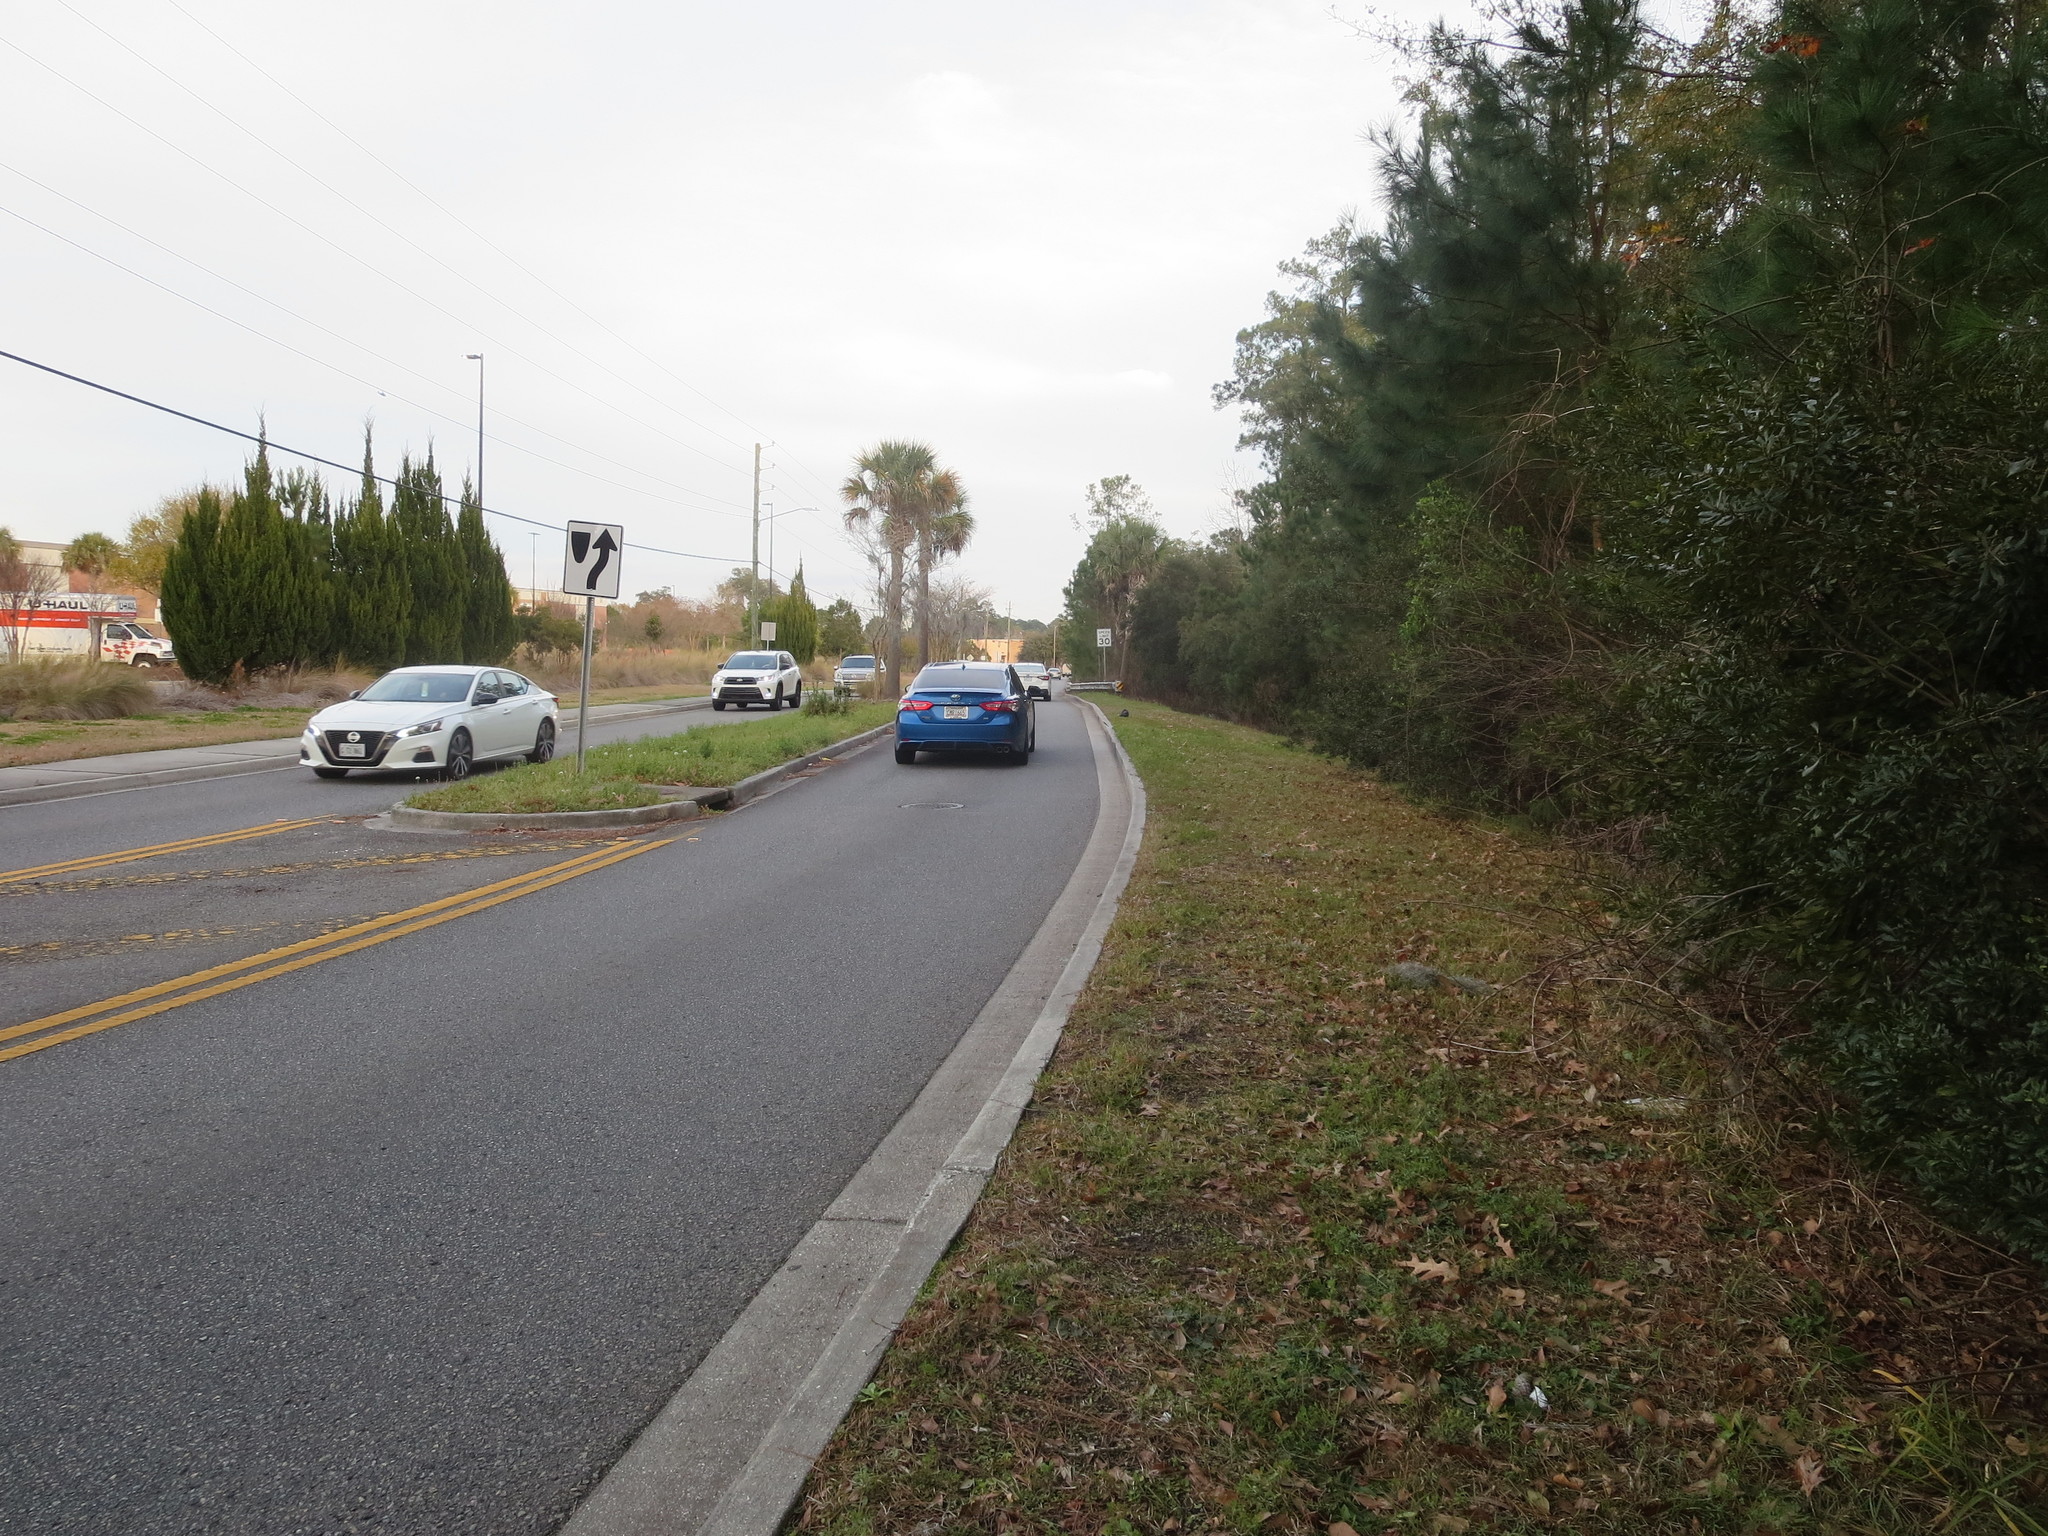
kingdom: Plantae
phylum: Tracheophyta
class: Magnoliopsida
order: Fagales
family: Myricaceae
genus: Morella
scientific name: Morella cerifera
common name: Wax myrtle
